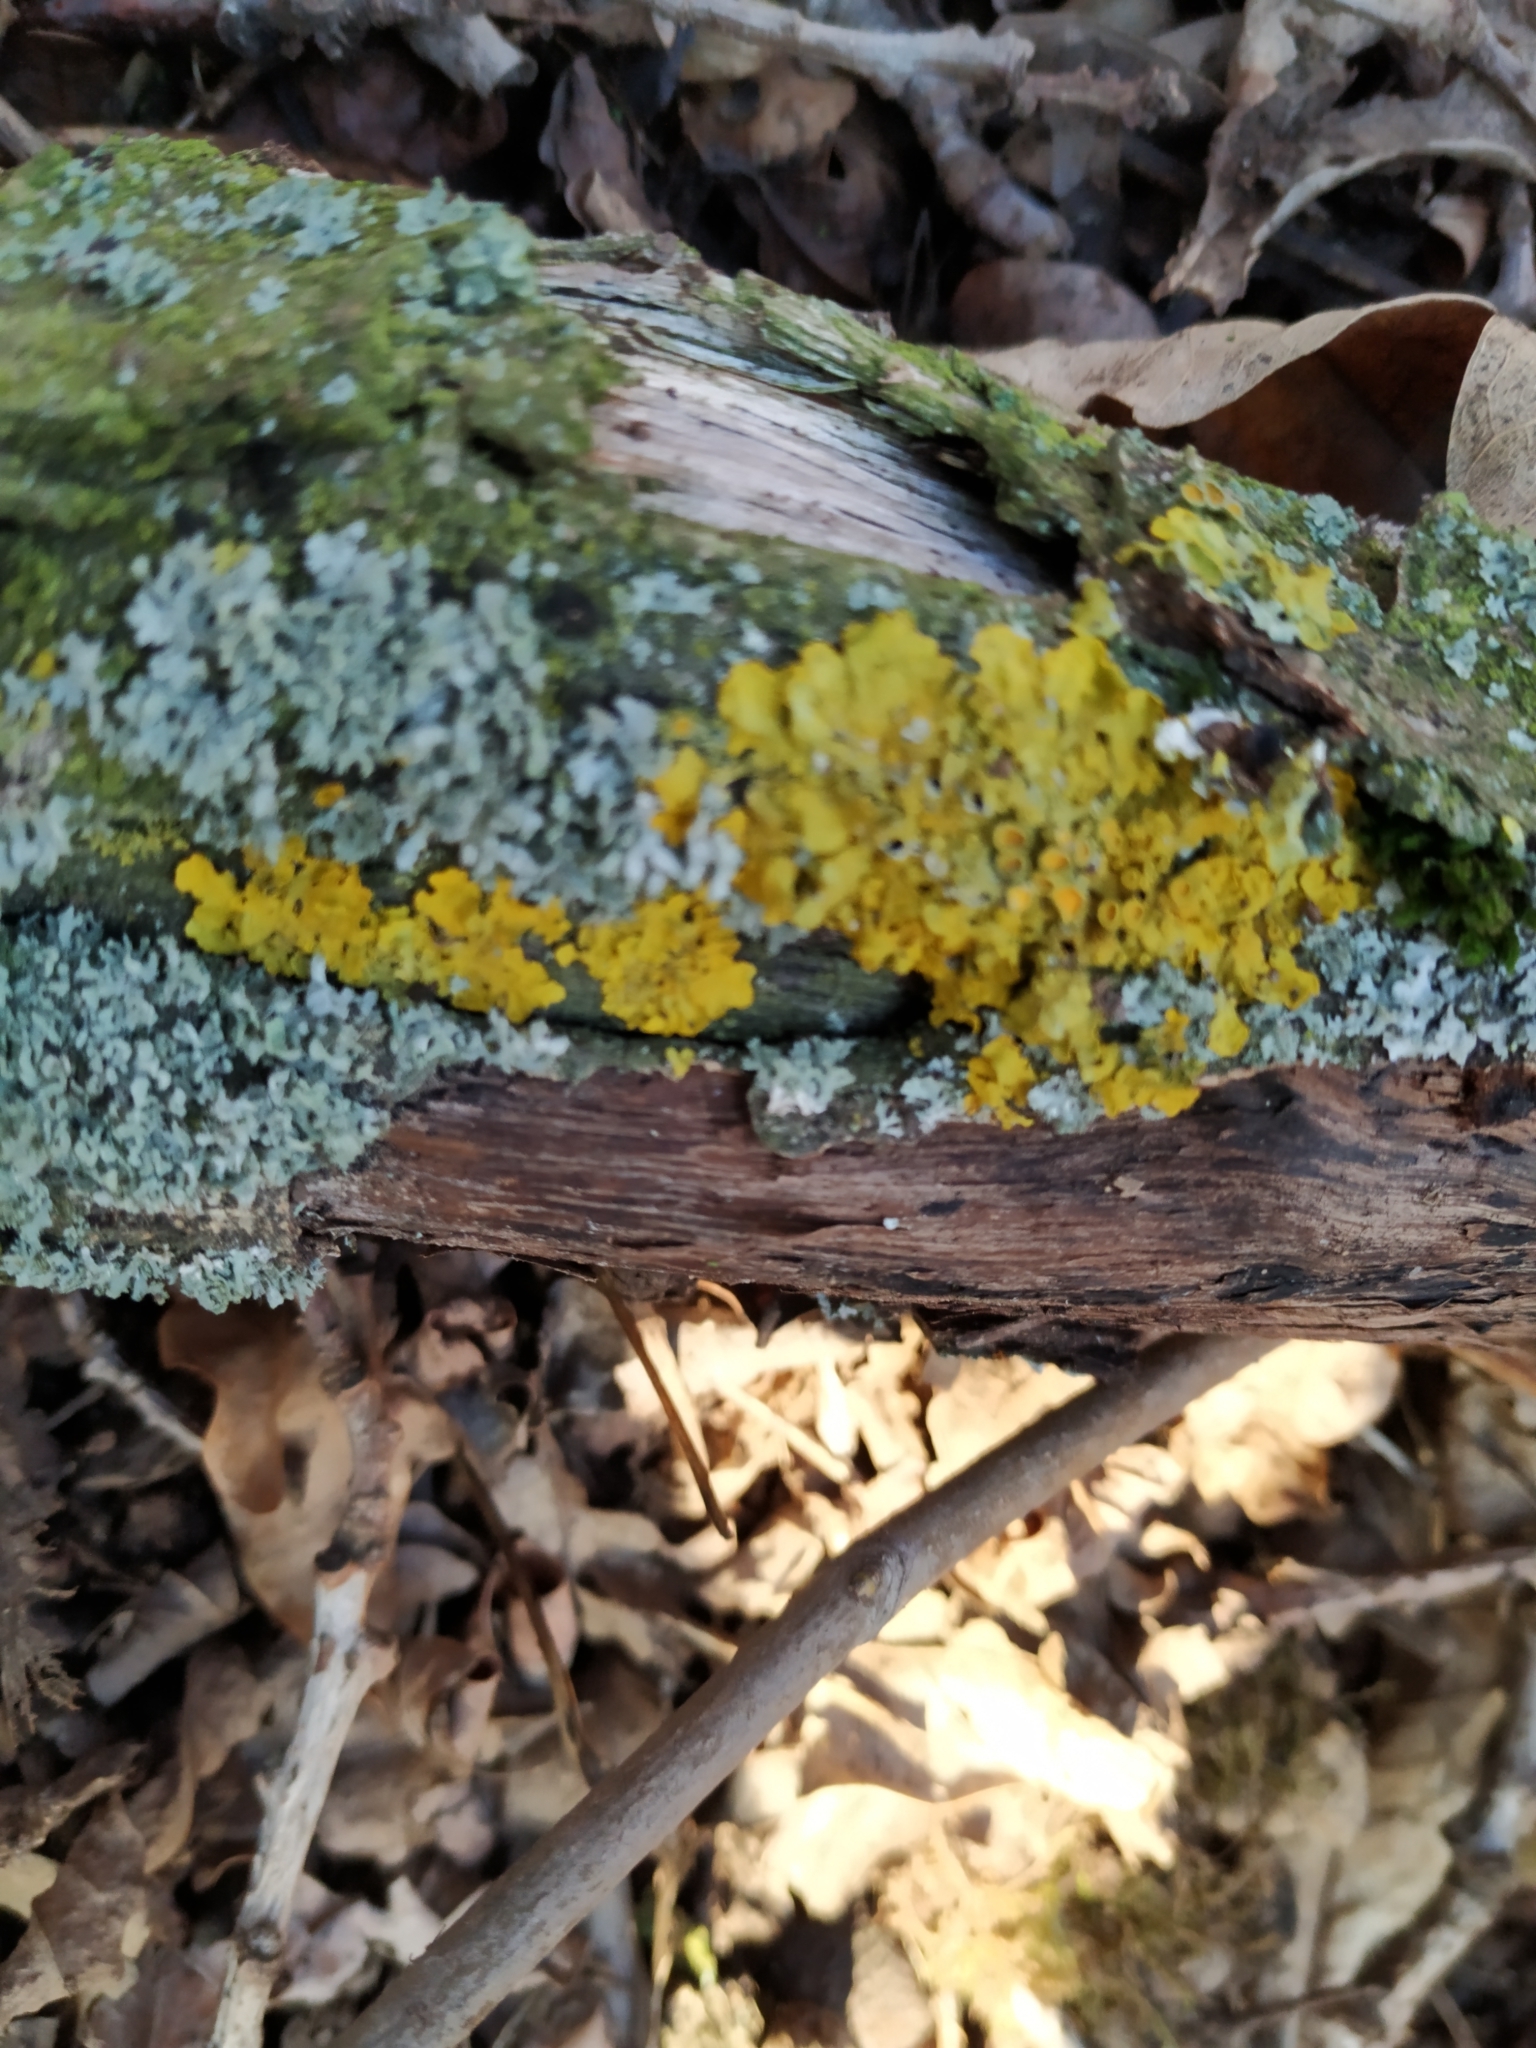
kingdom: Fungi
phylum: Ascomycota
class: Lecanoromycetes
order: Teloschistales
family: Teloschistaceae
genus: Xanthoria
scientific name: Xanthoria parietina
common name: Common orange lichen
